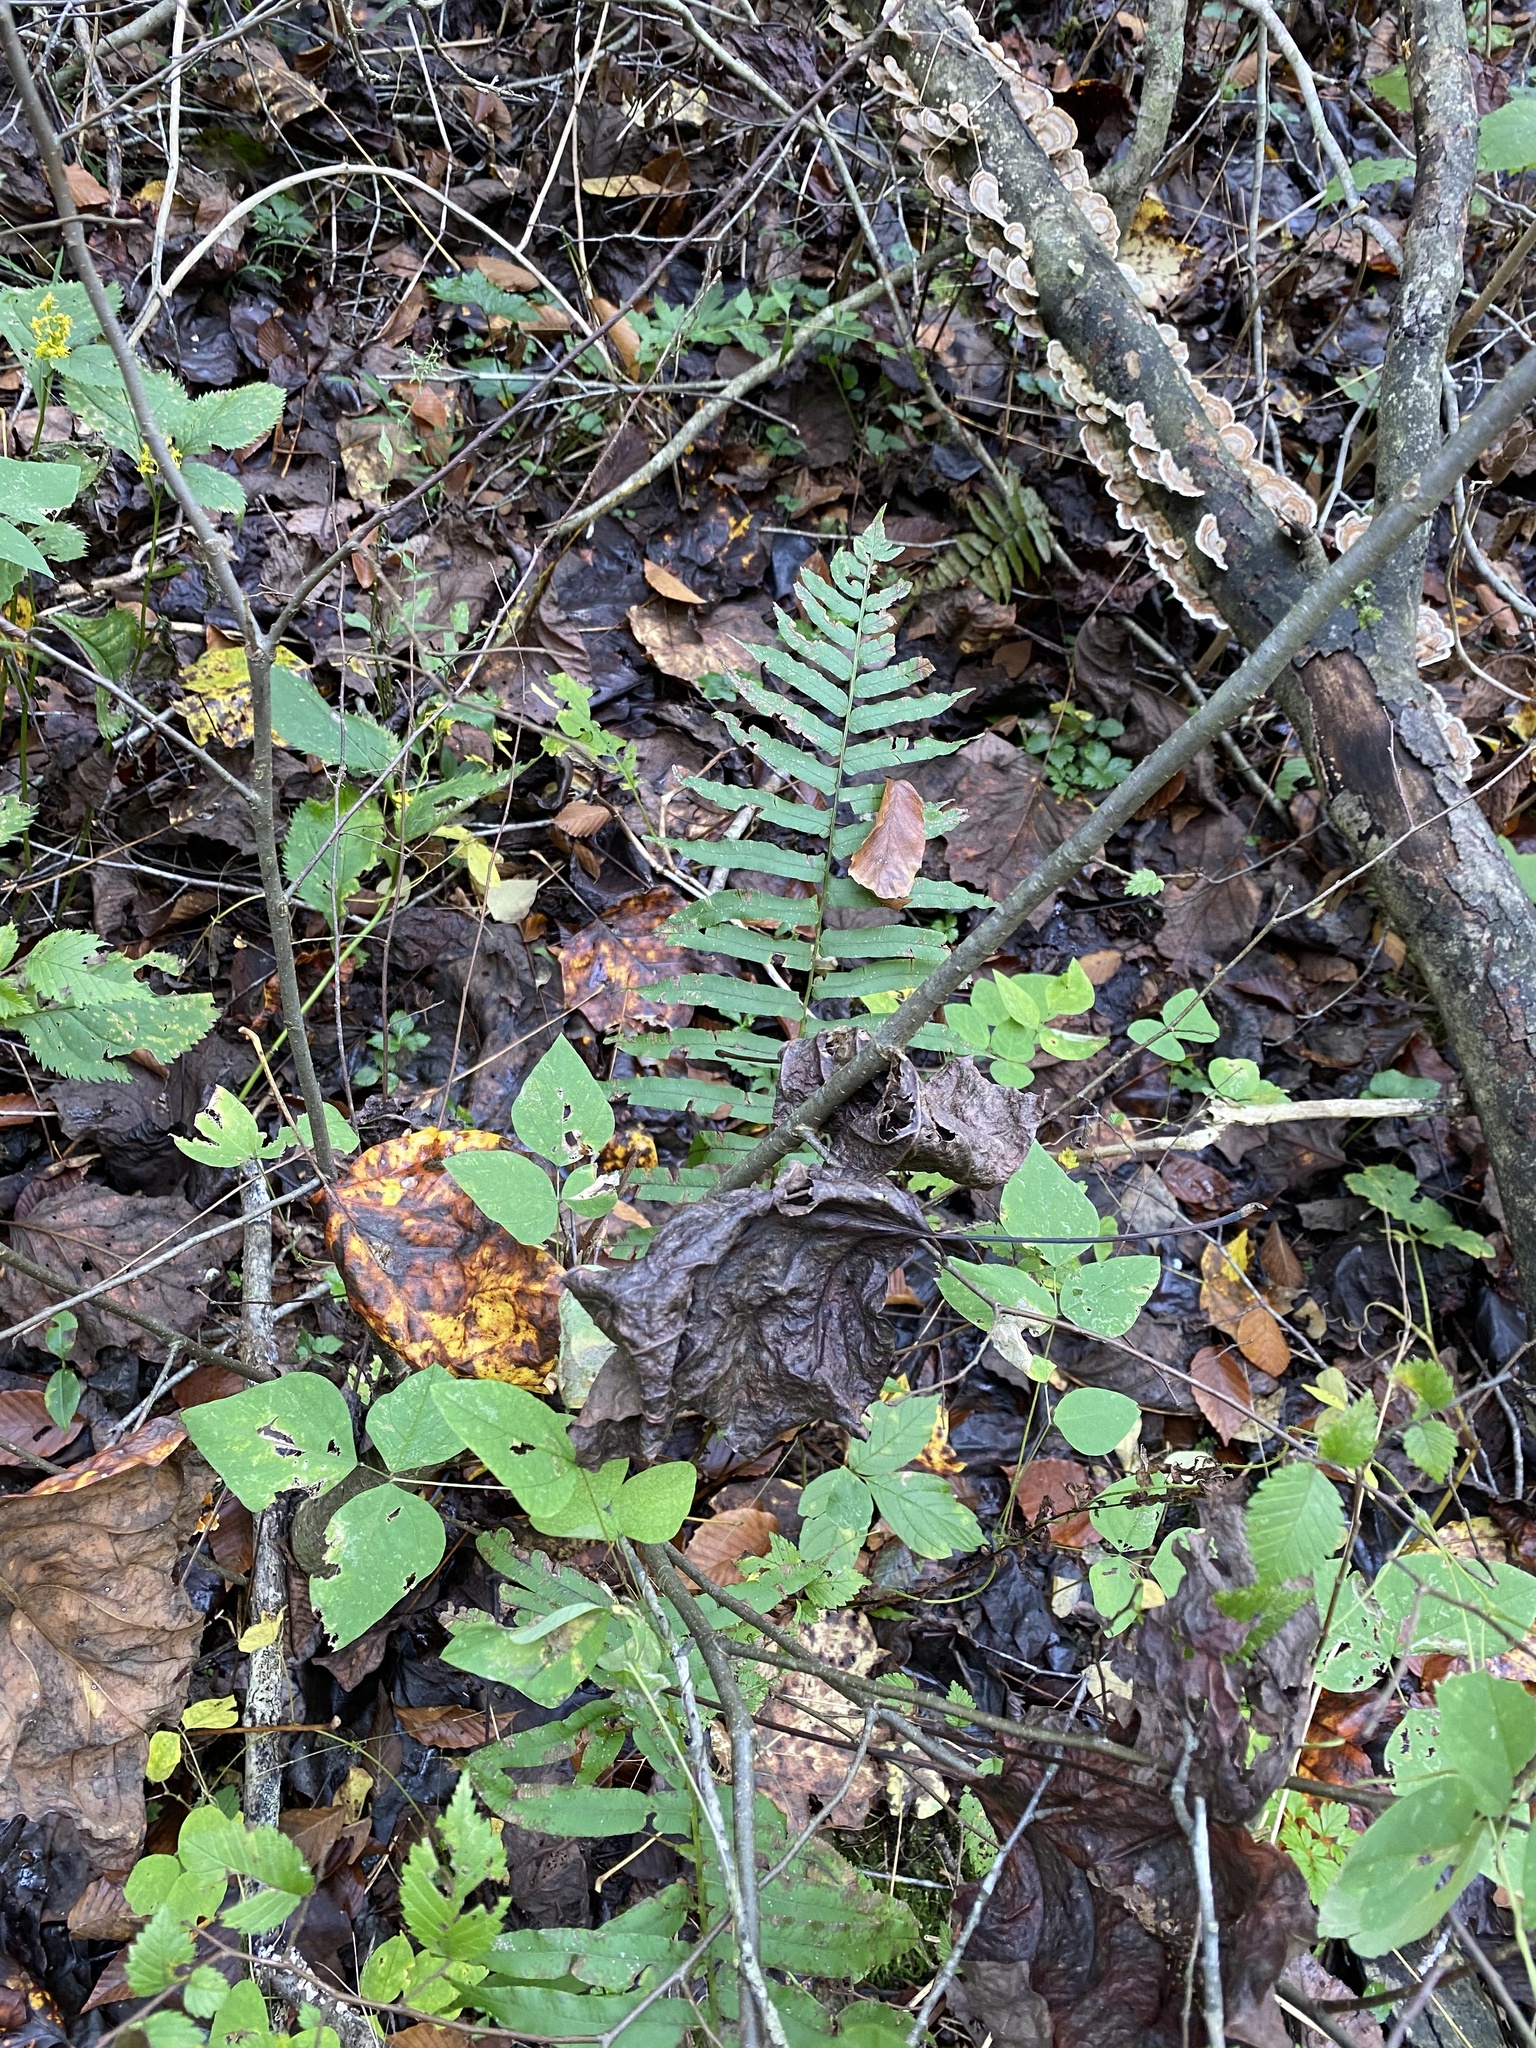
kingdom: Plantae
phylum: Tracheophyta
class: Polypodiopsida
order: Polypodiales
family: Diplaziopsidaceae
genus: Homalosorus
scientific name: Homalosorus pycnocarpos
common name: Glade fern
